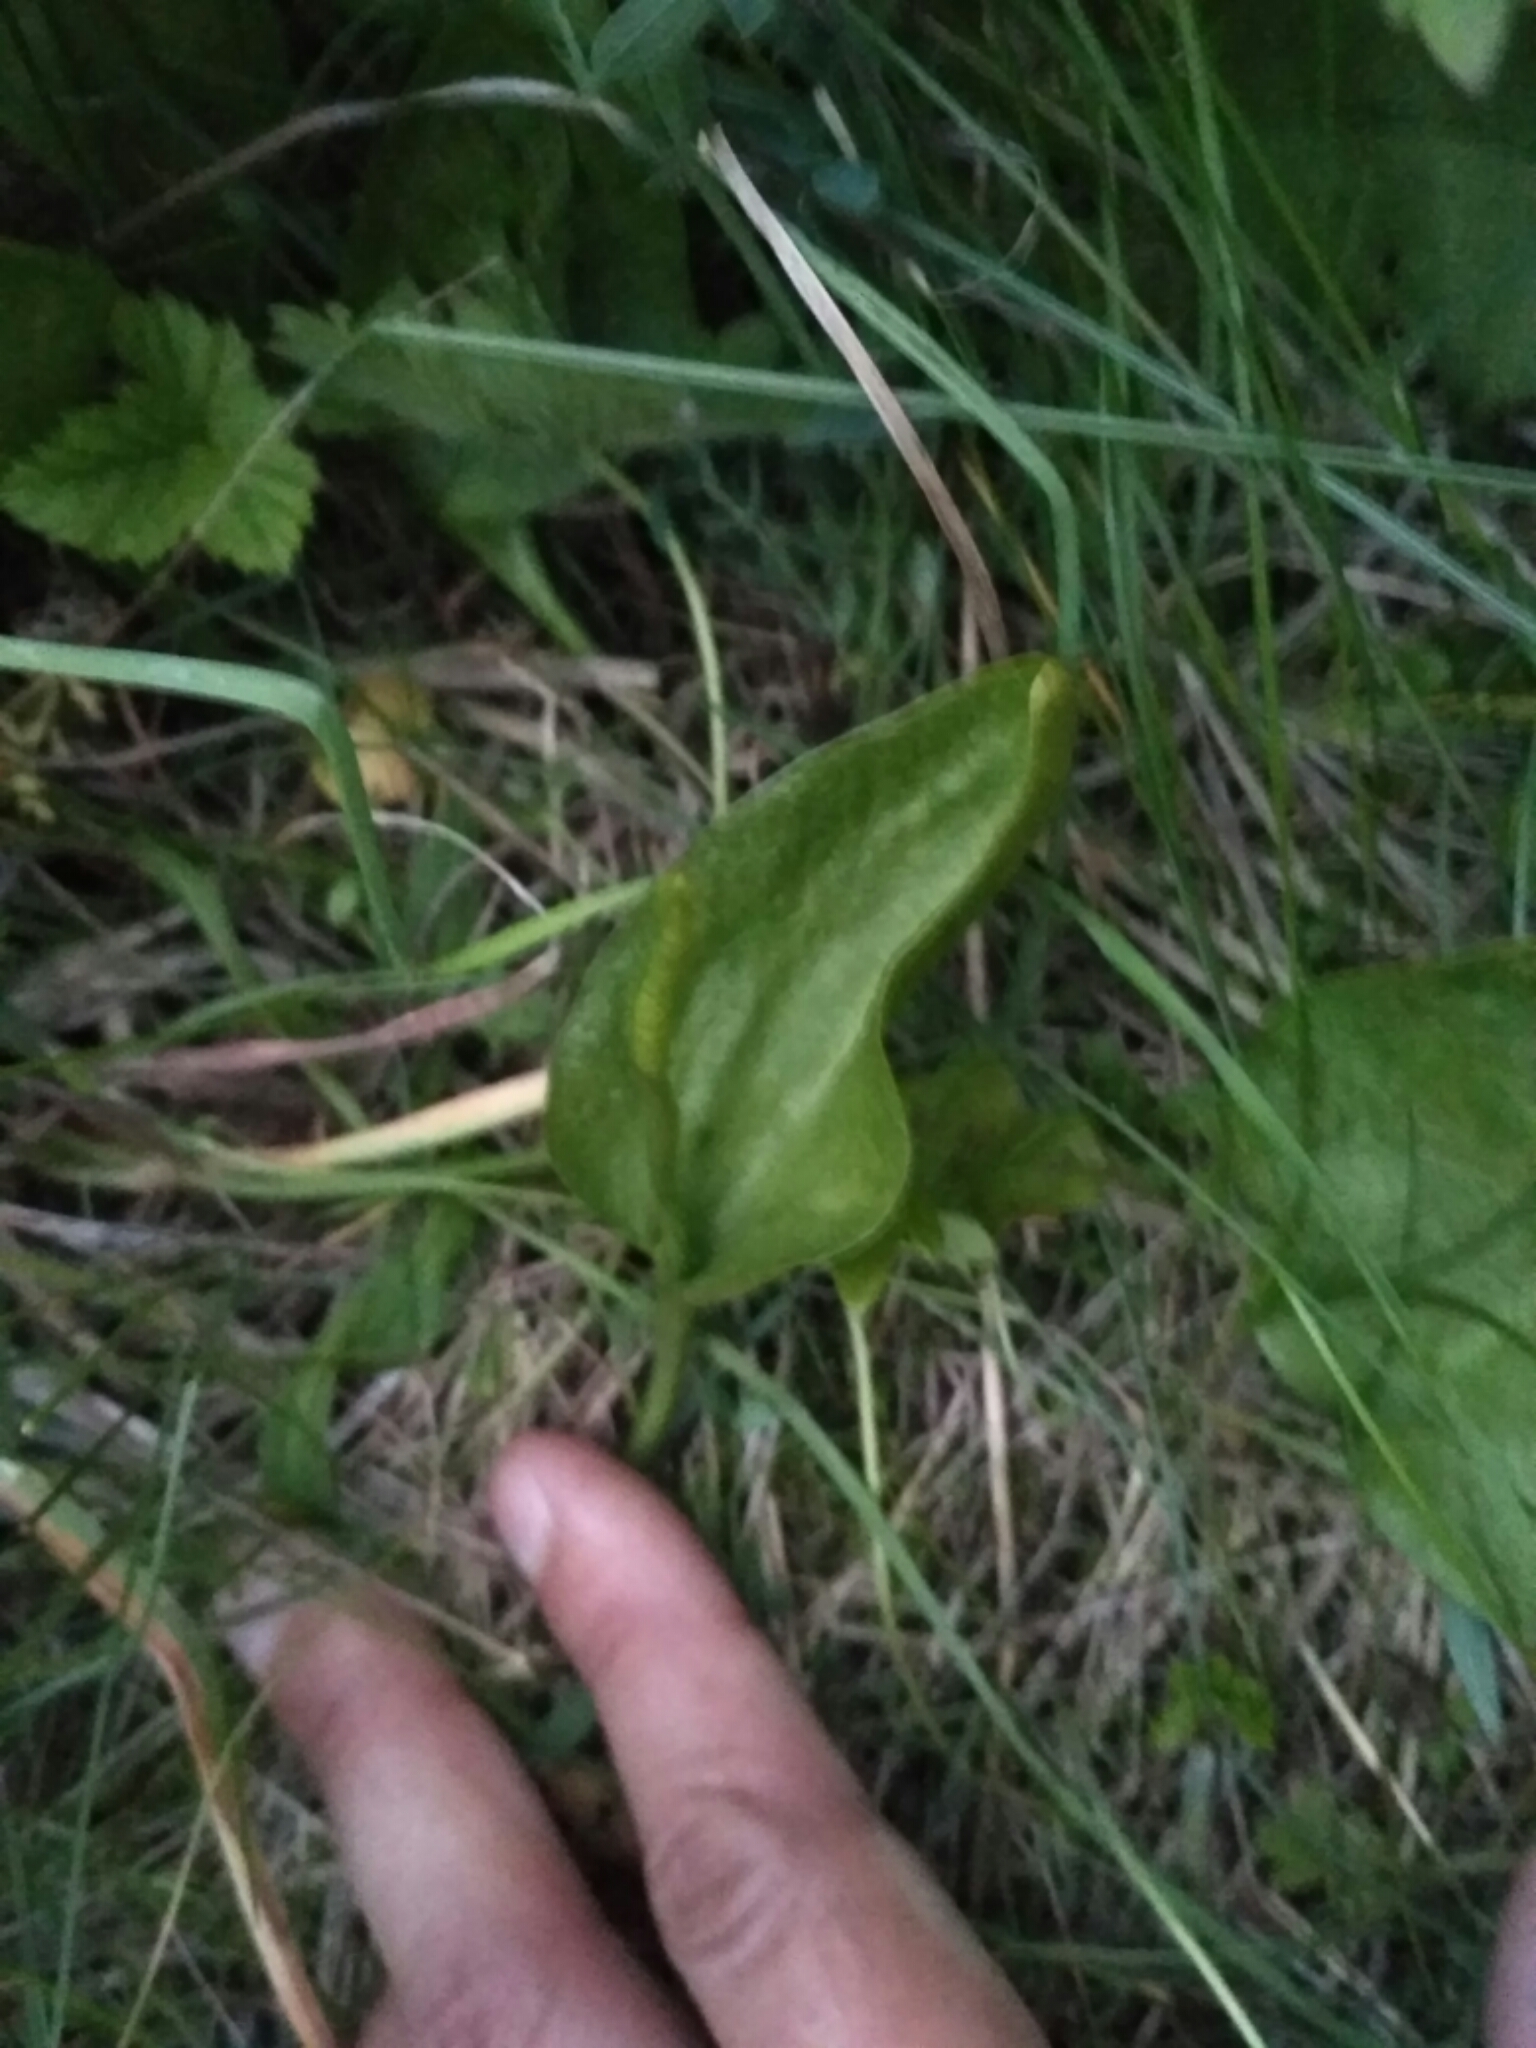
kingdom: Plantae
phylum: Tracheophyta
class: Polypodiopsida
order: Ophioglossales
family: Ophioglossaceae
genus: Ophioglossum
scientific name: Ophioglossum vulgatum
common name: Adder's-tongue
